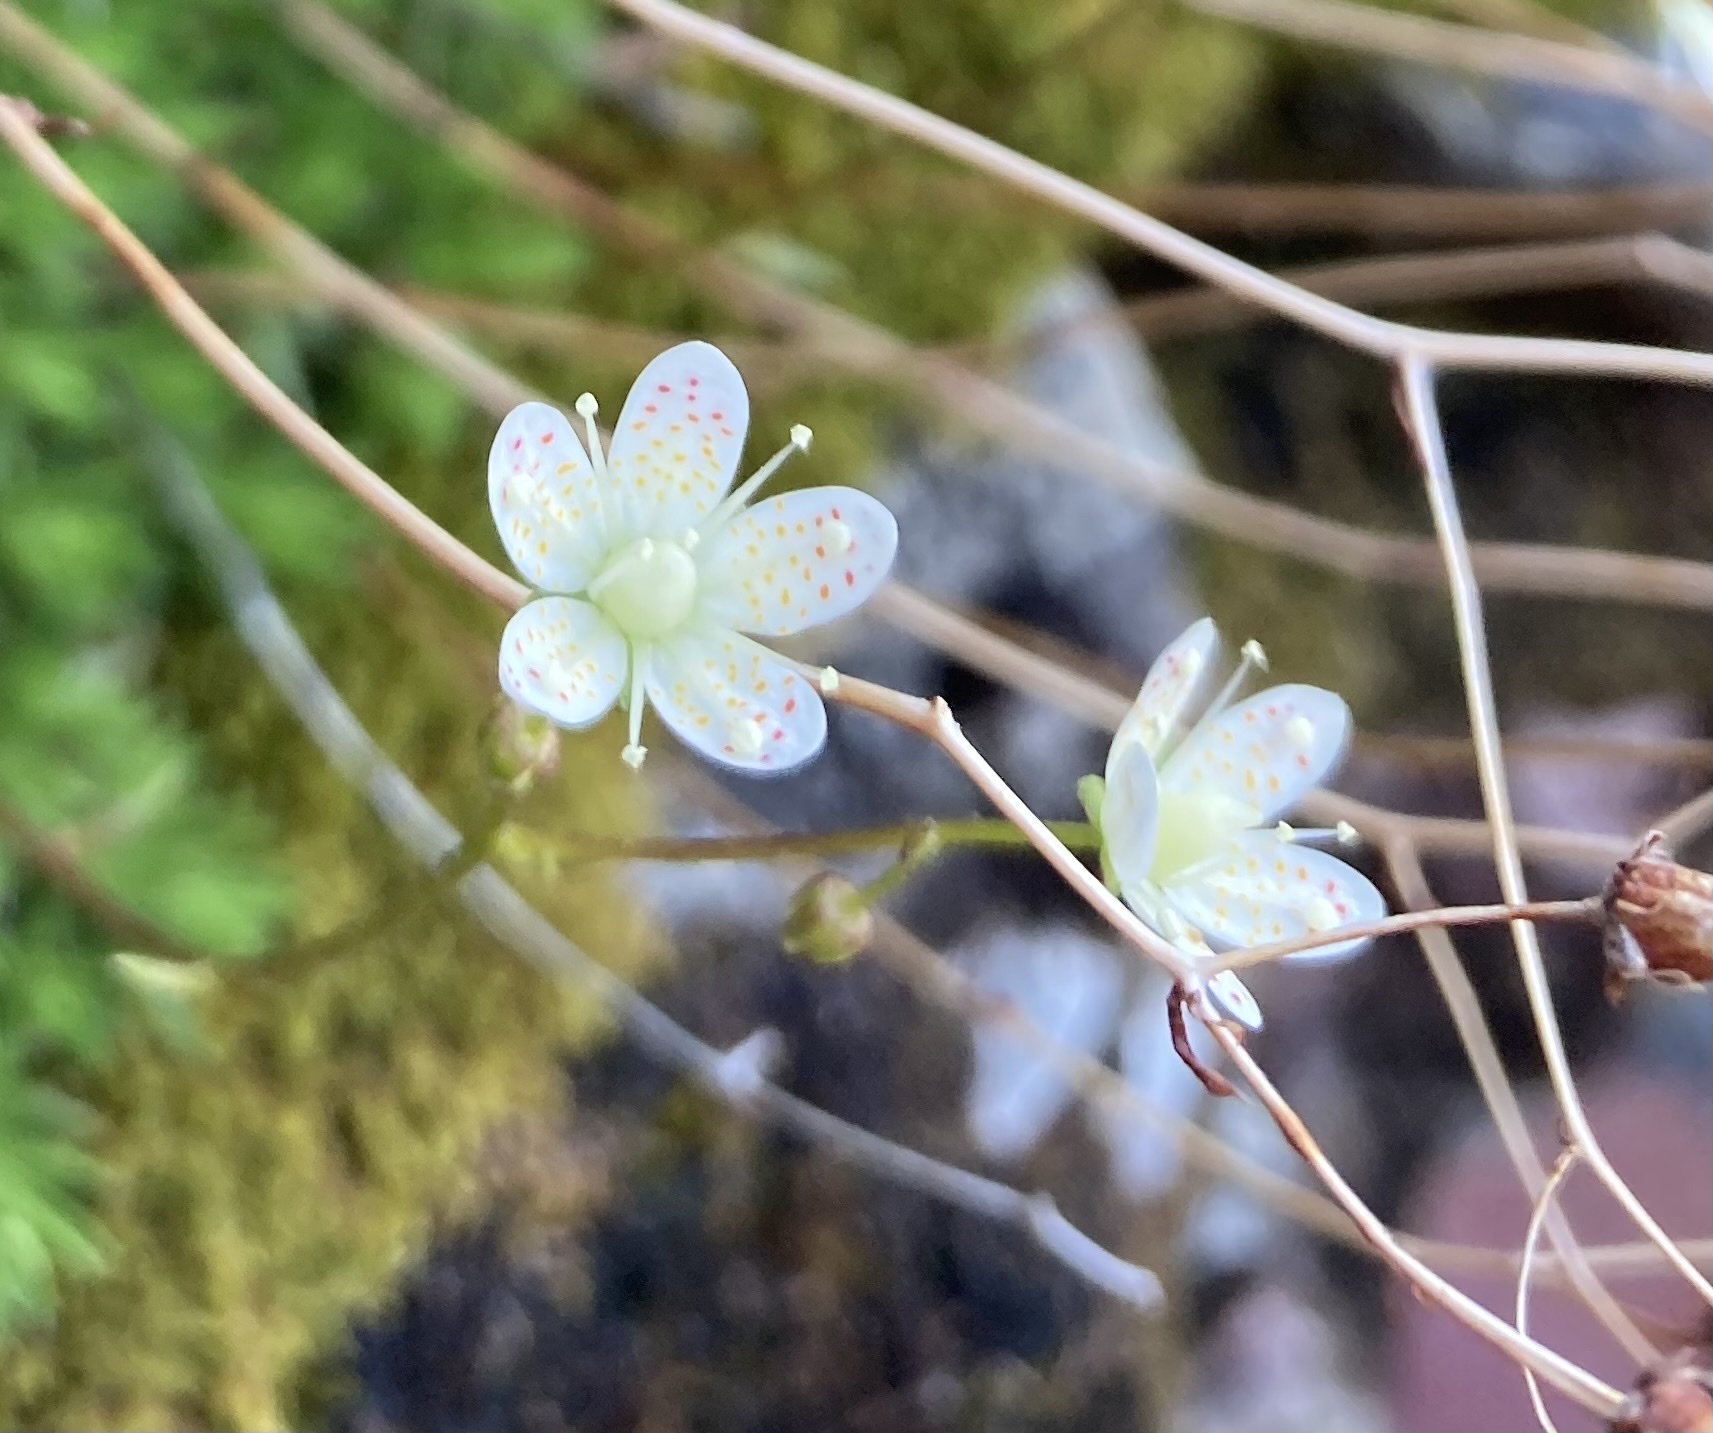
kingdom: Plantae
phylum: Tracheophyta
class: Magnoliopsida
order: Saxifragales
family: Saxifragaceae
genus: Saxifraga
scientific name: Saxifraga bronchialis
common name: Matted saxifrage
